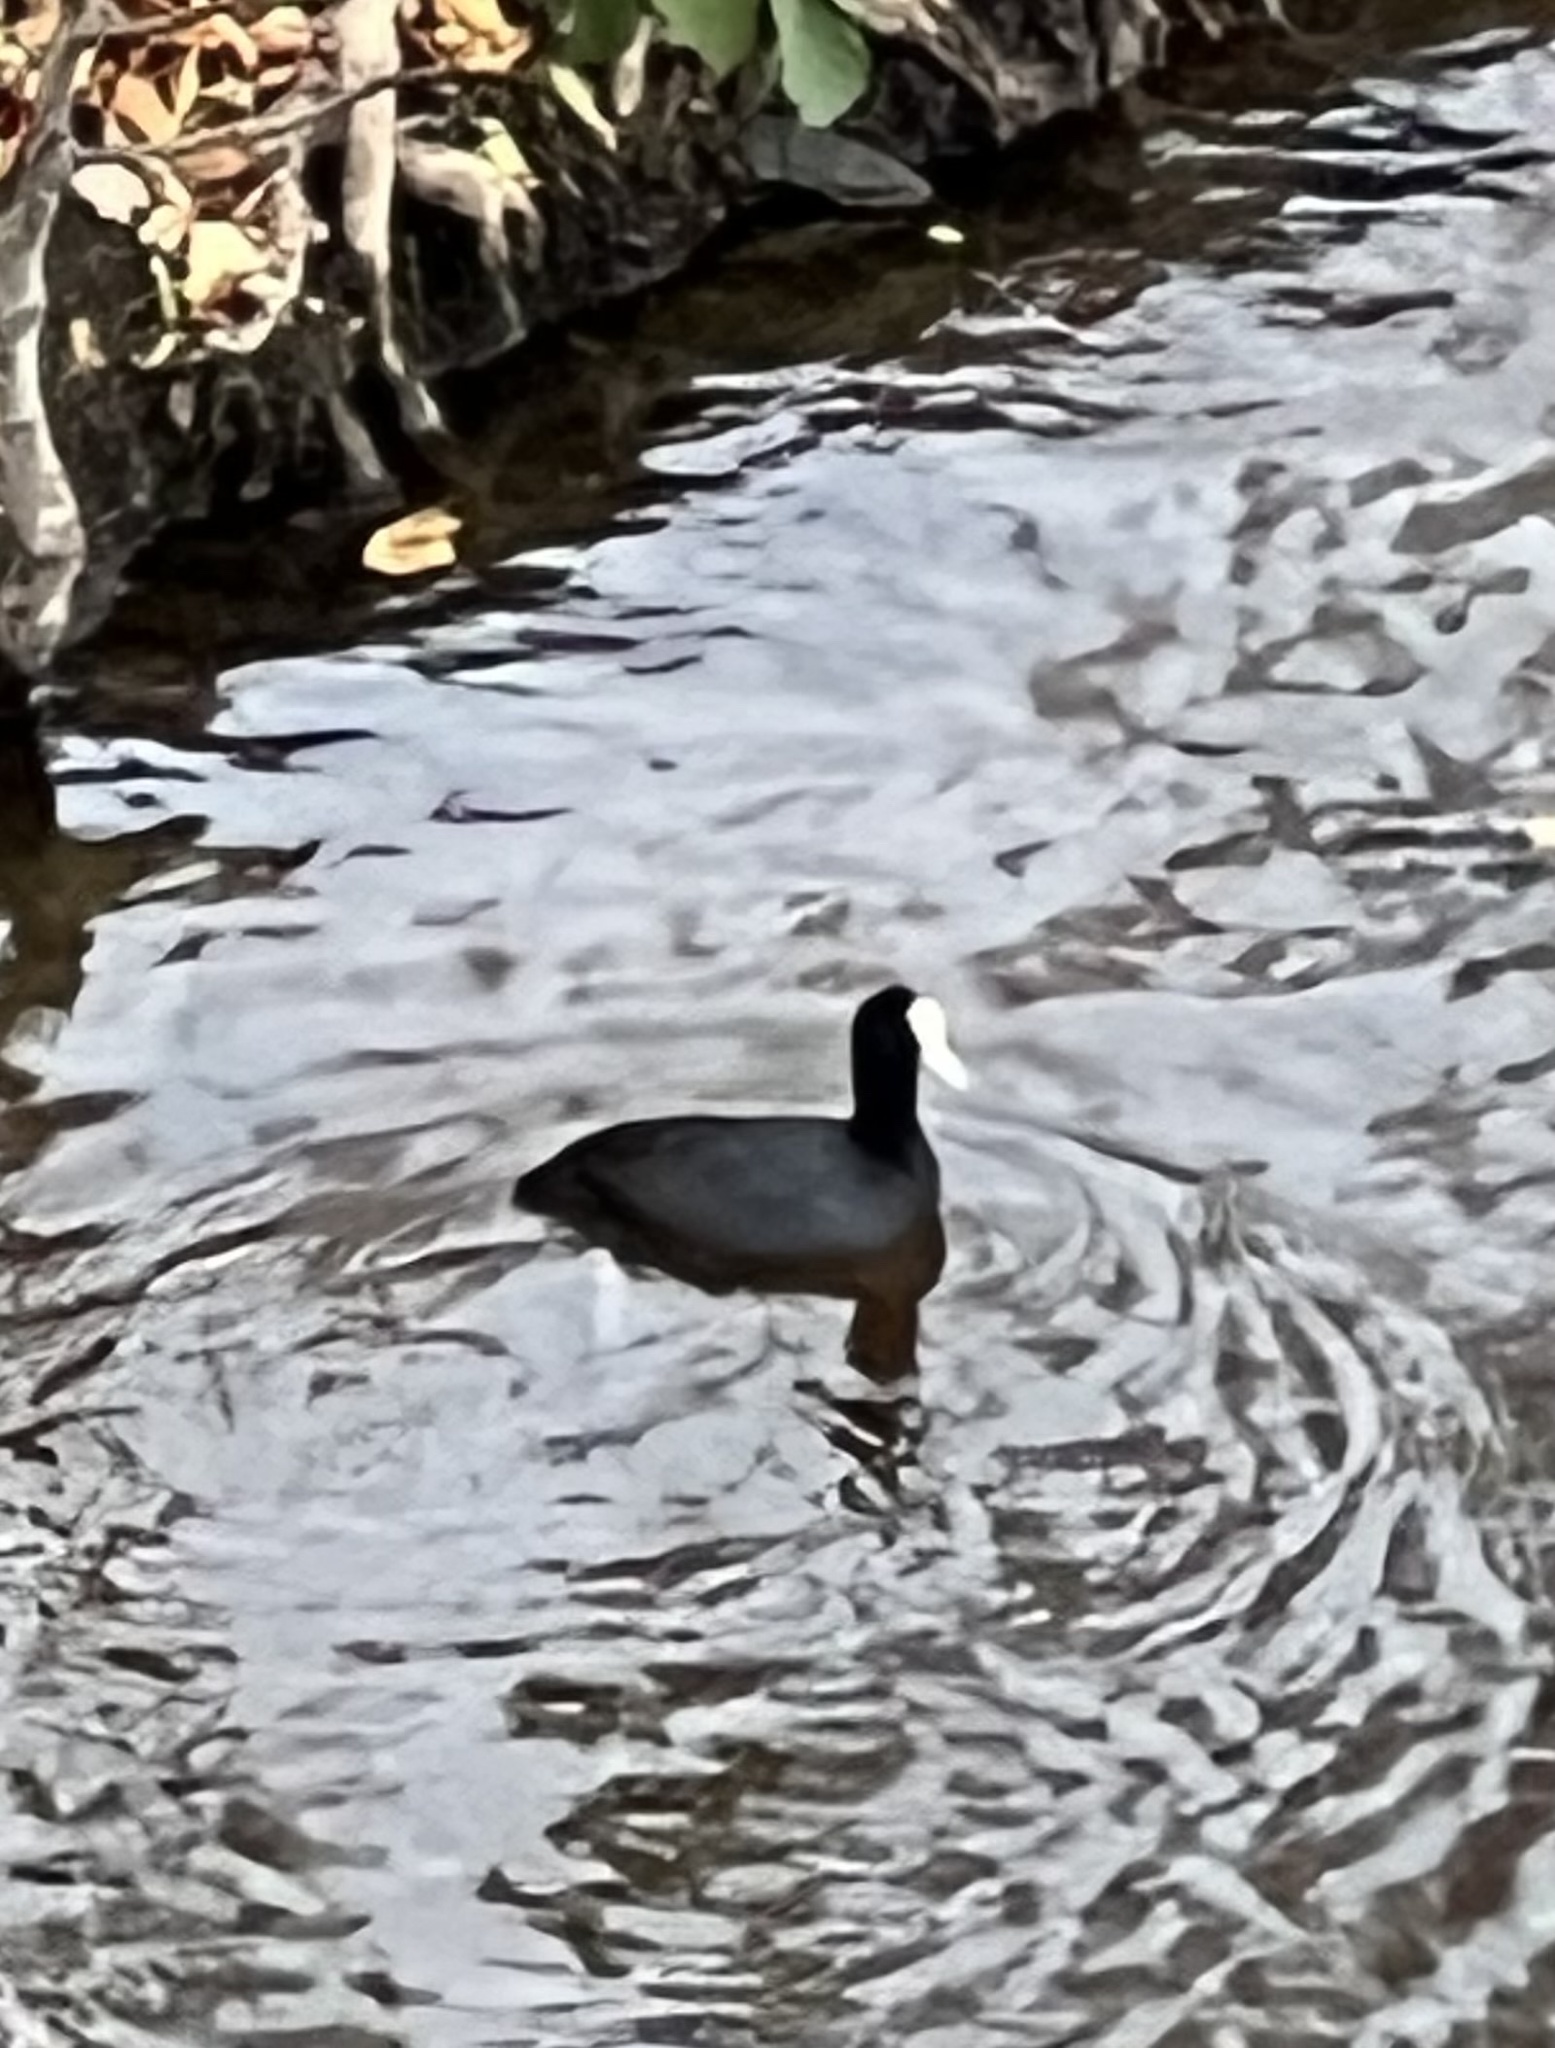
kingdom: Animalia
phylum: Chordata
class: Aves
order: Gruiformes
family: Rallidae
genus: Fulica
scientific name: Fulica atra
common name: Eurasian coot
